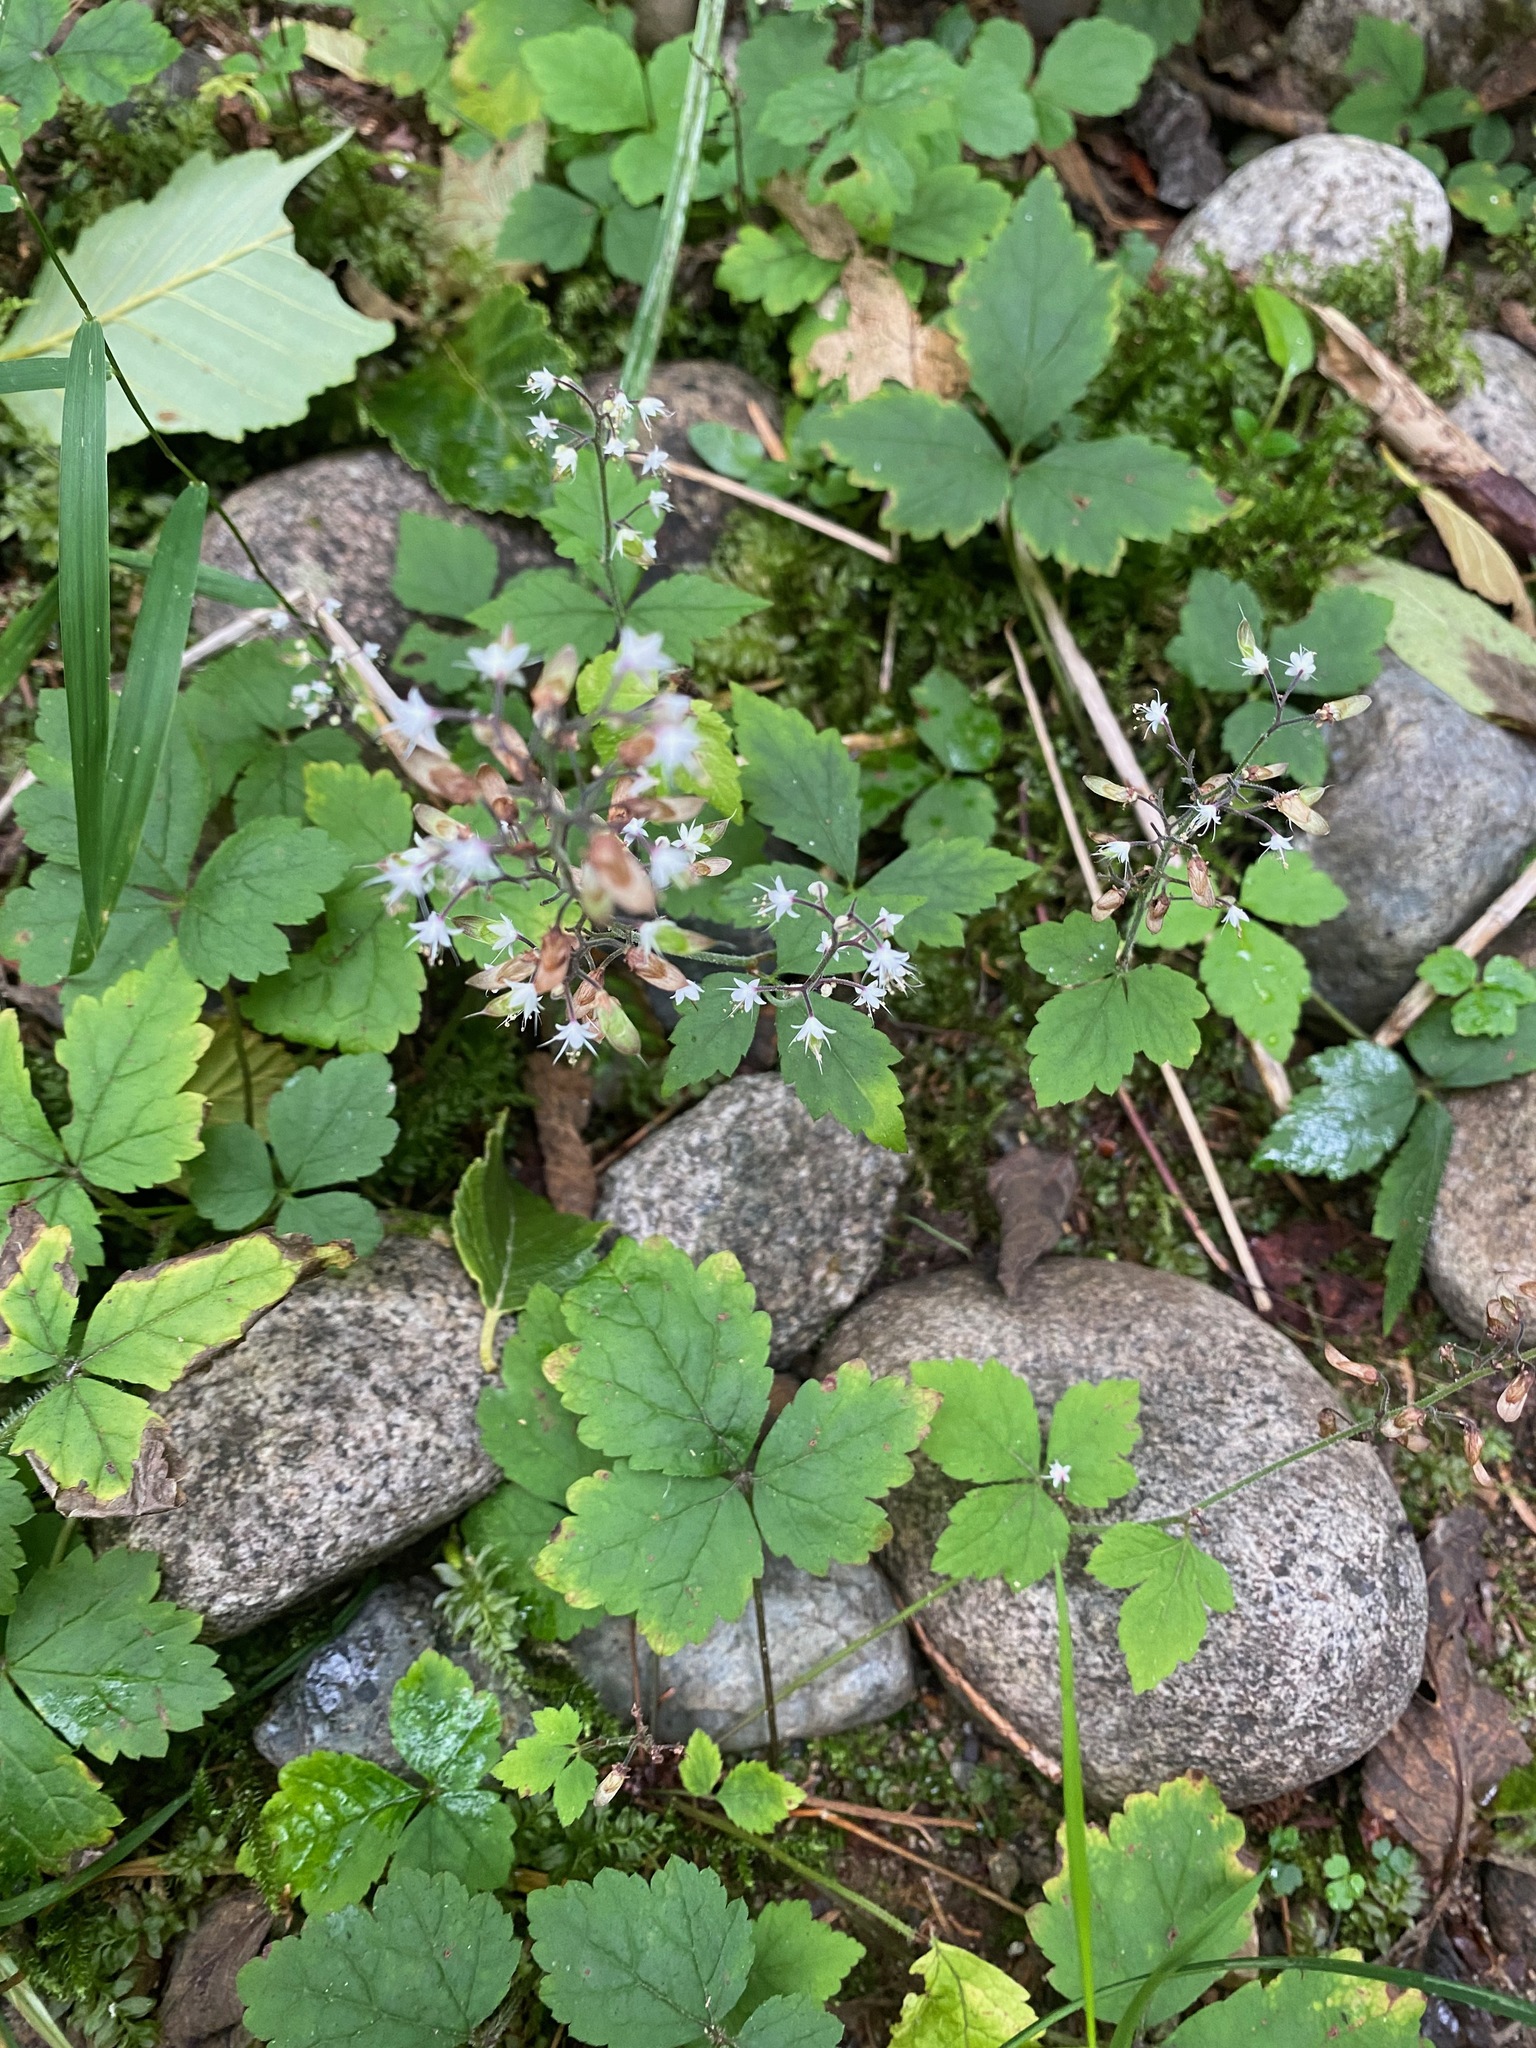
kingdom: Plantae
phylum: Tracheophyta
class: Magnoliopsida
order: Saxifragales
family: Saxifragaceae
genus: Tiarella
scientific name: Tiarella trifoliata
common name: Sugar-scoop
